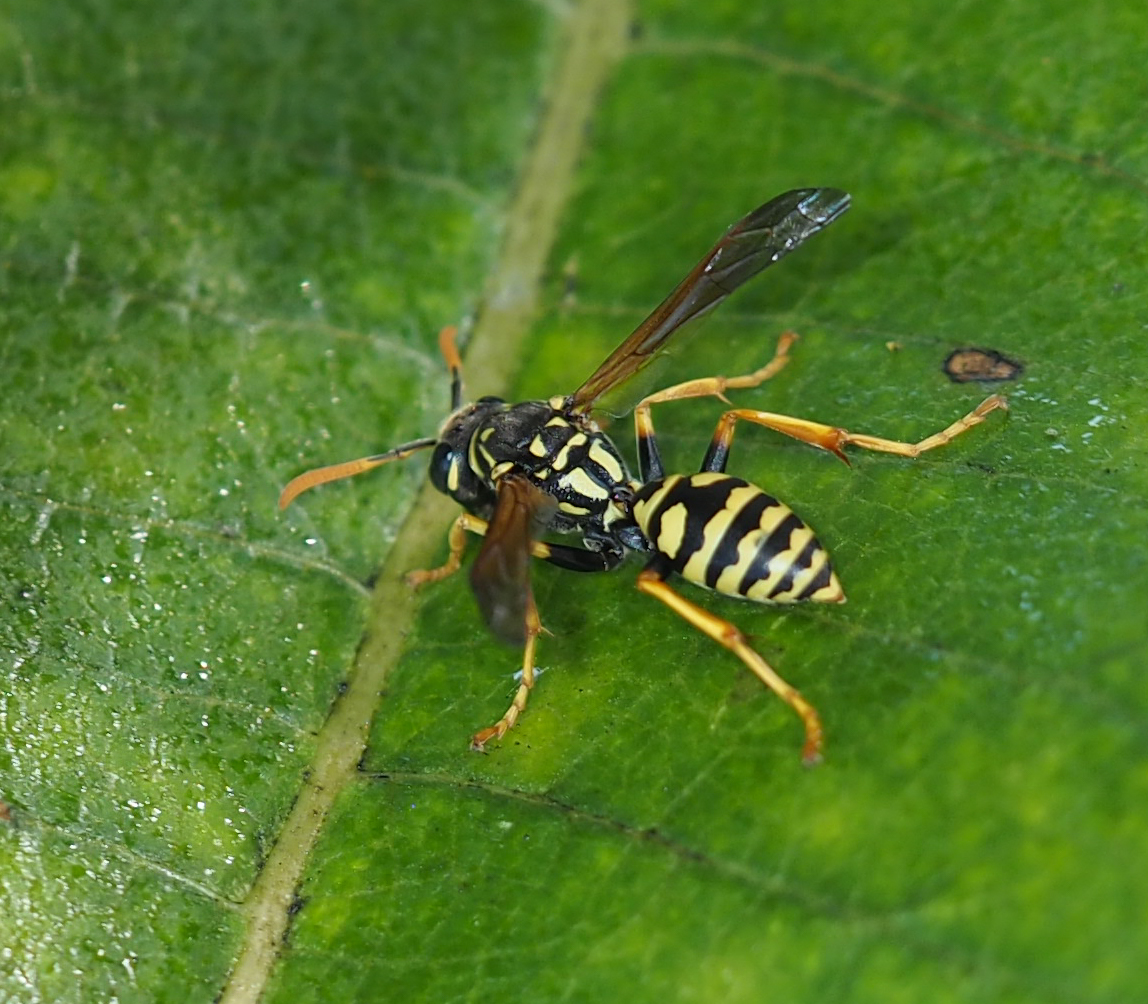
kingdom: Animalia
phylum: Arthropoda
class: Insecta
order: Hymenoptera
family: Eumenidae
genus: Polistes
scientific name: Polistes dominula
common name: Paper wasp
